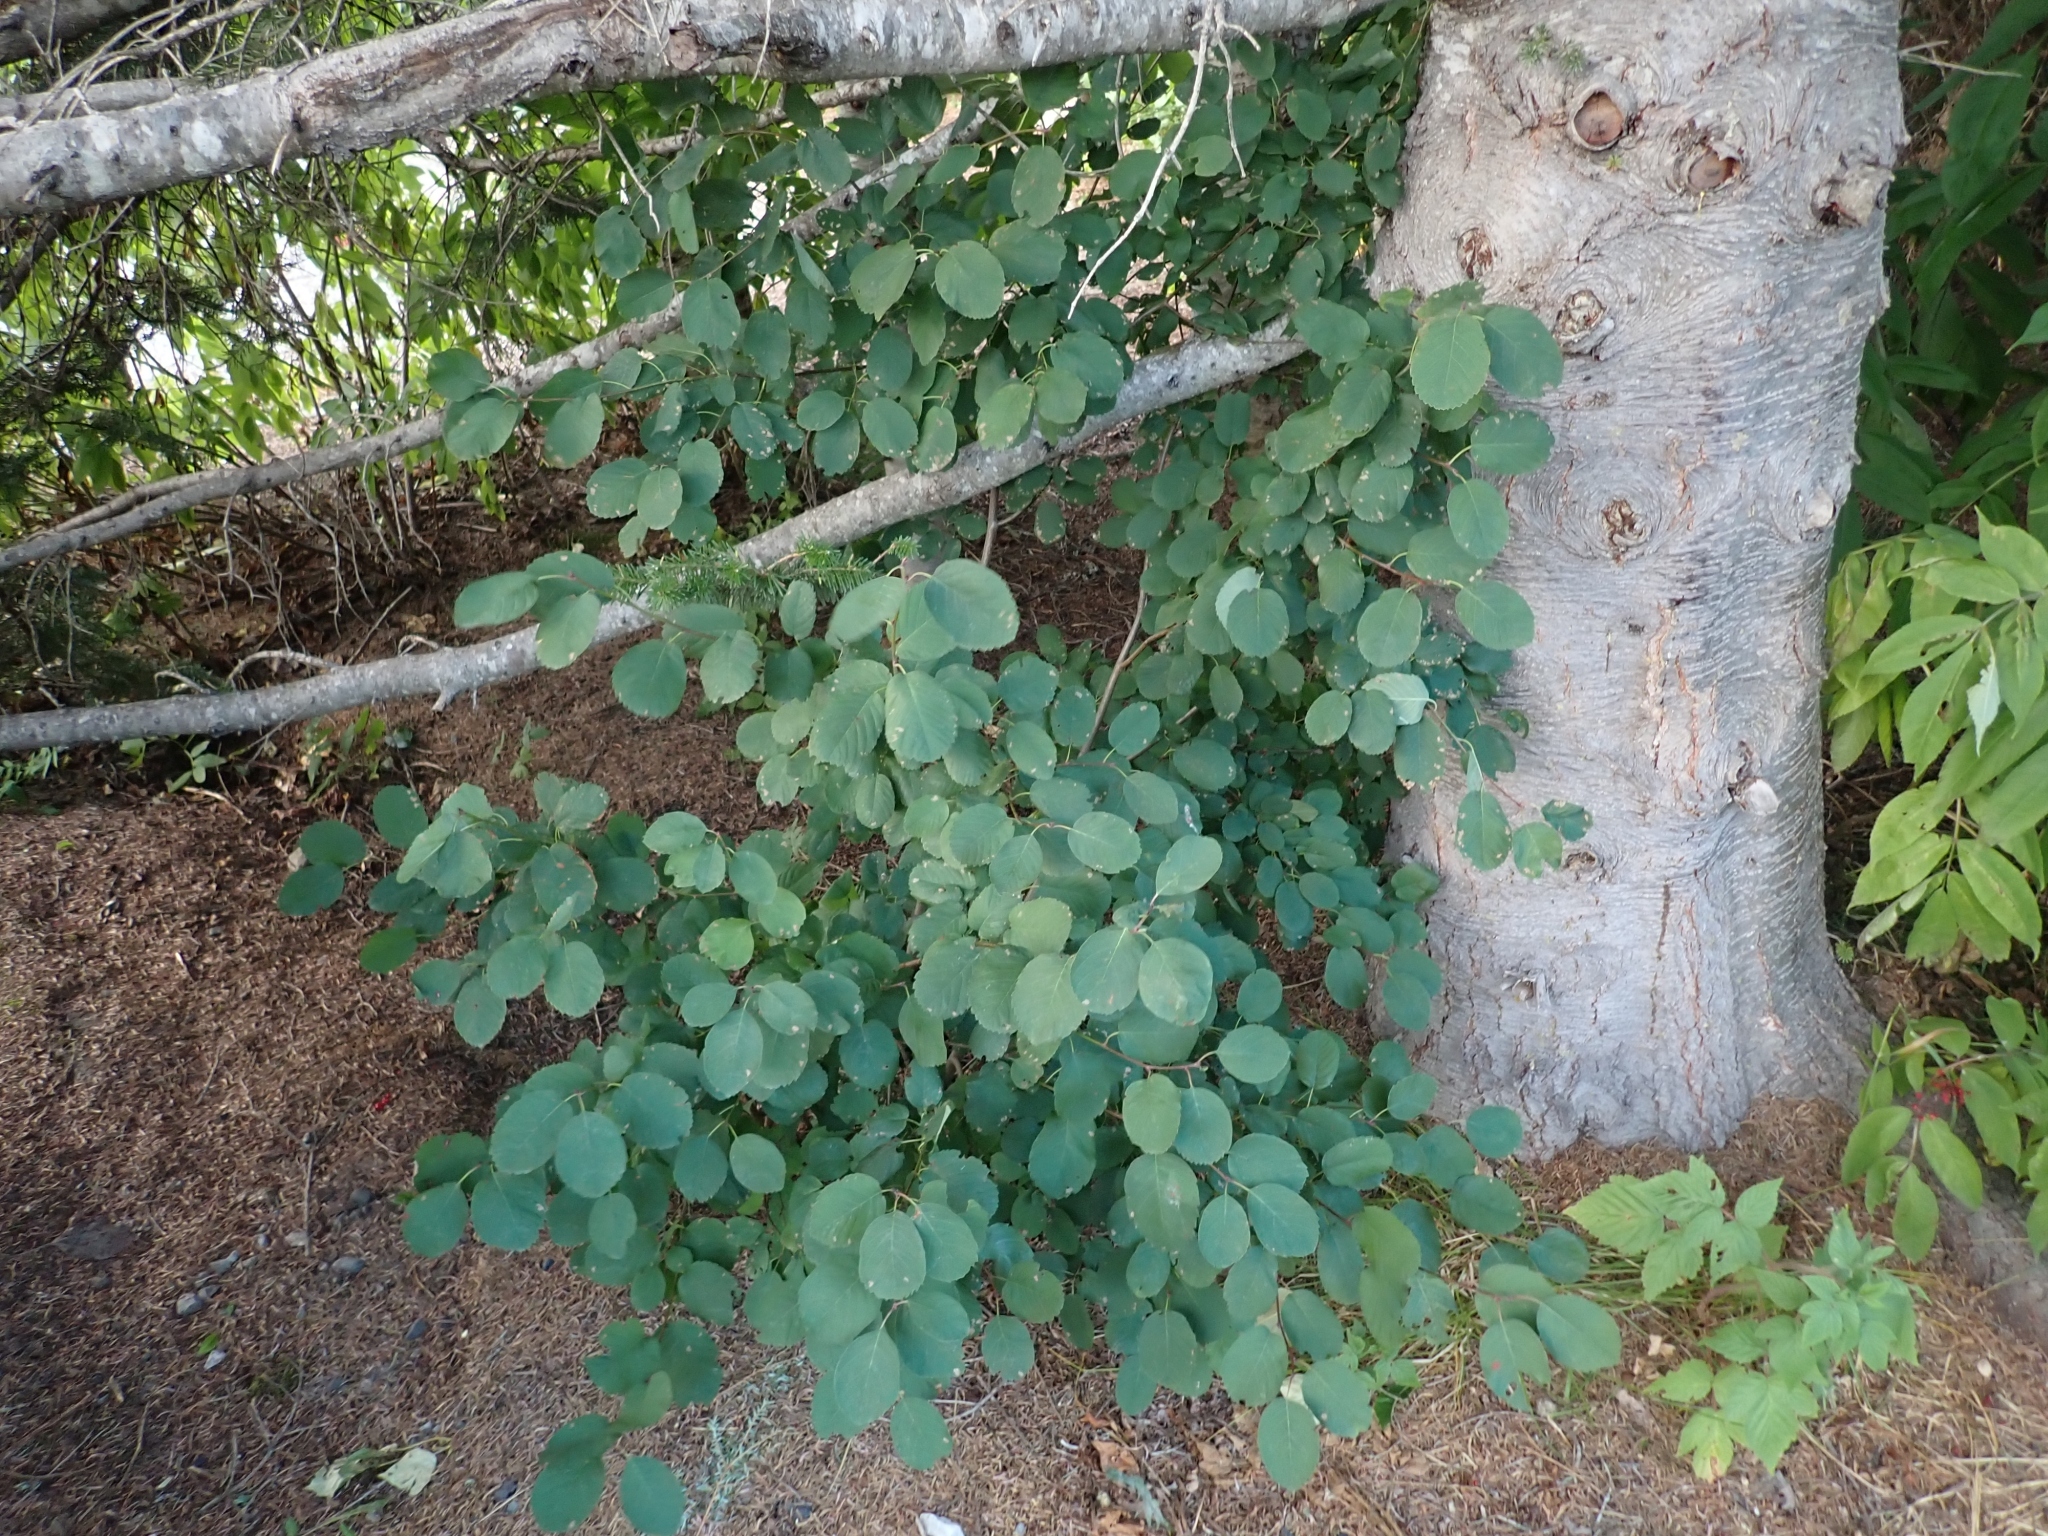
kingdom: Plantae
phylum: Tracheophyta
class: Magnoliopsida
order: Rosales
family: Rosaceae
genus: Amelanchier
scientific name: Amelanchier alnifolia
